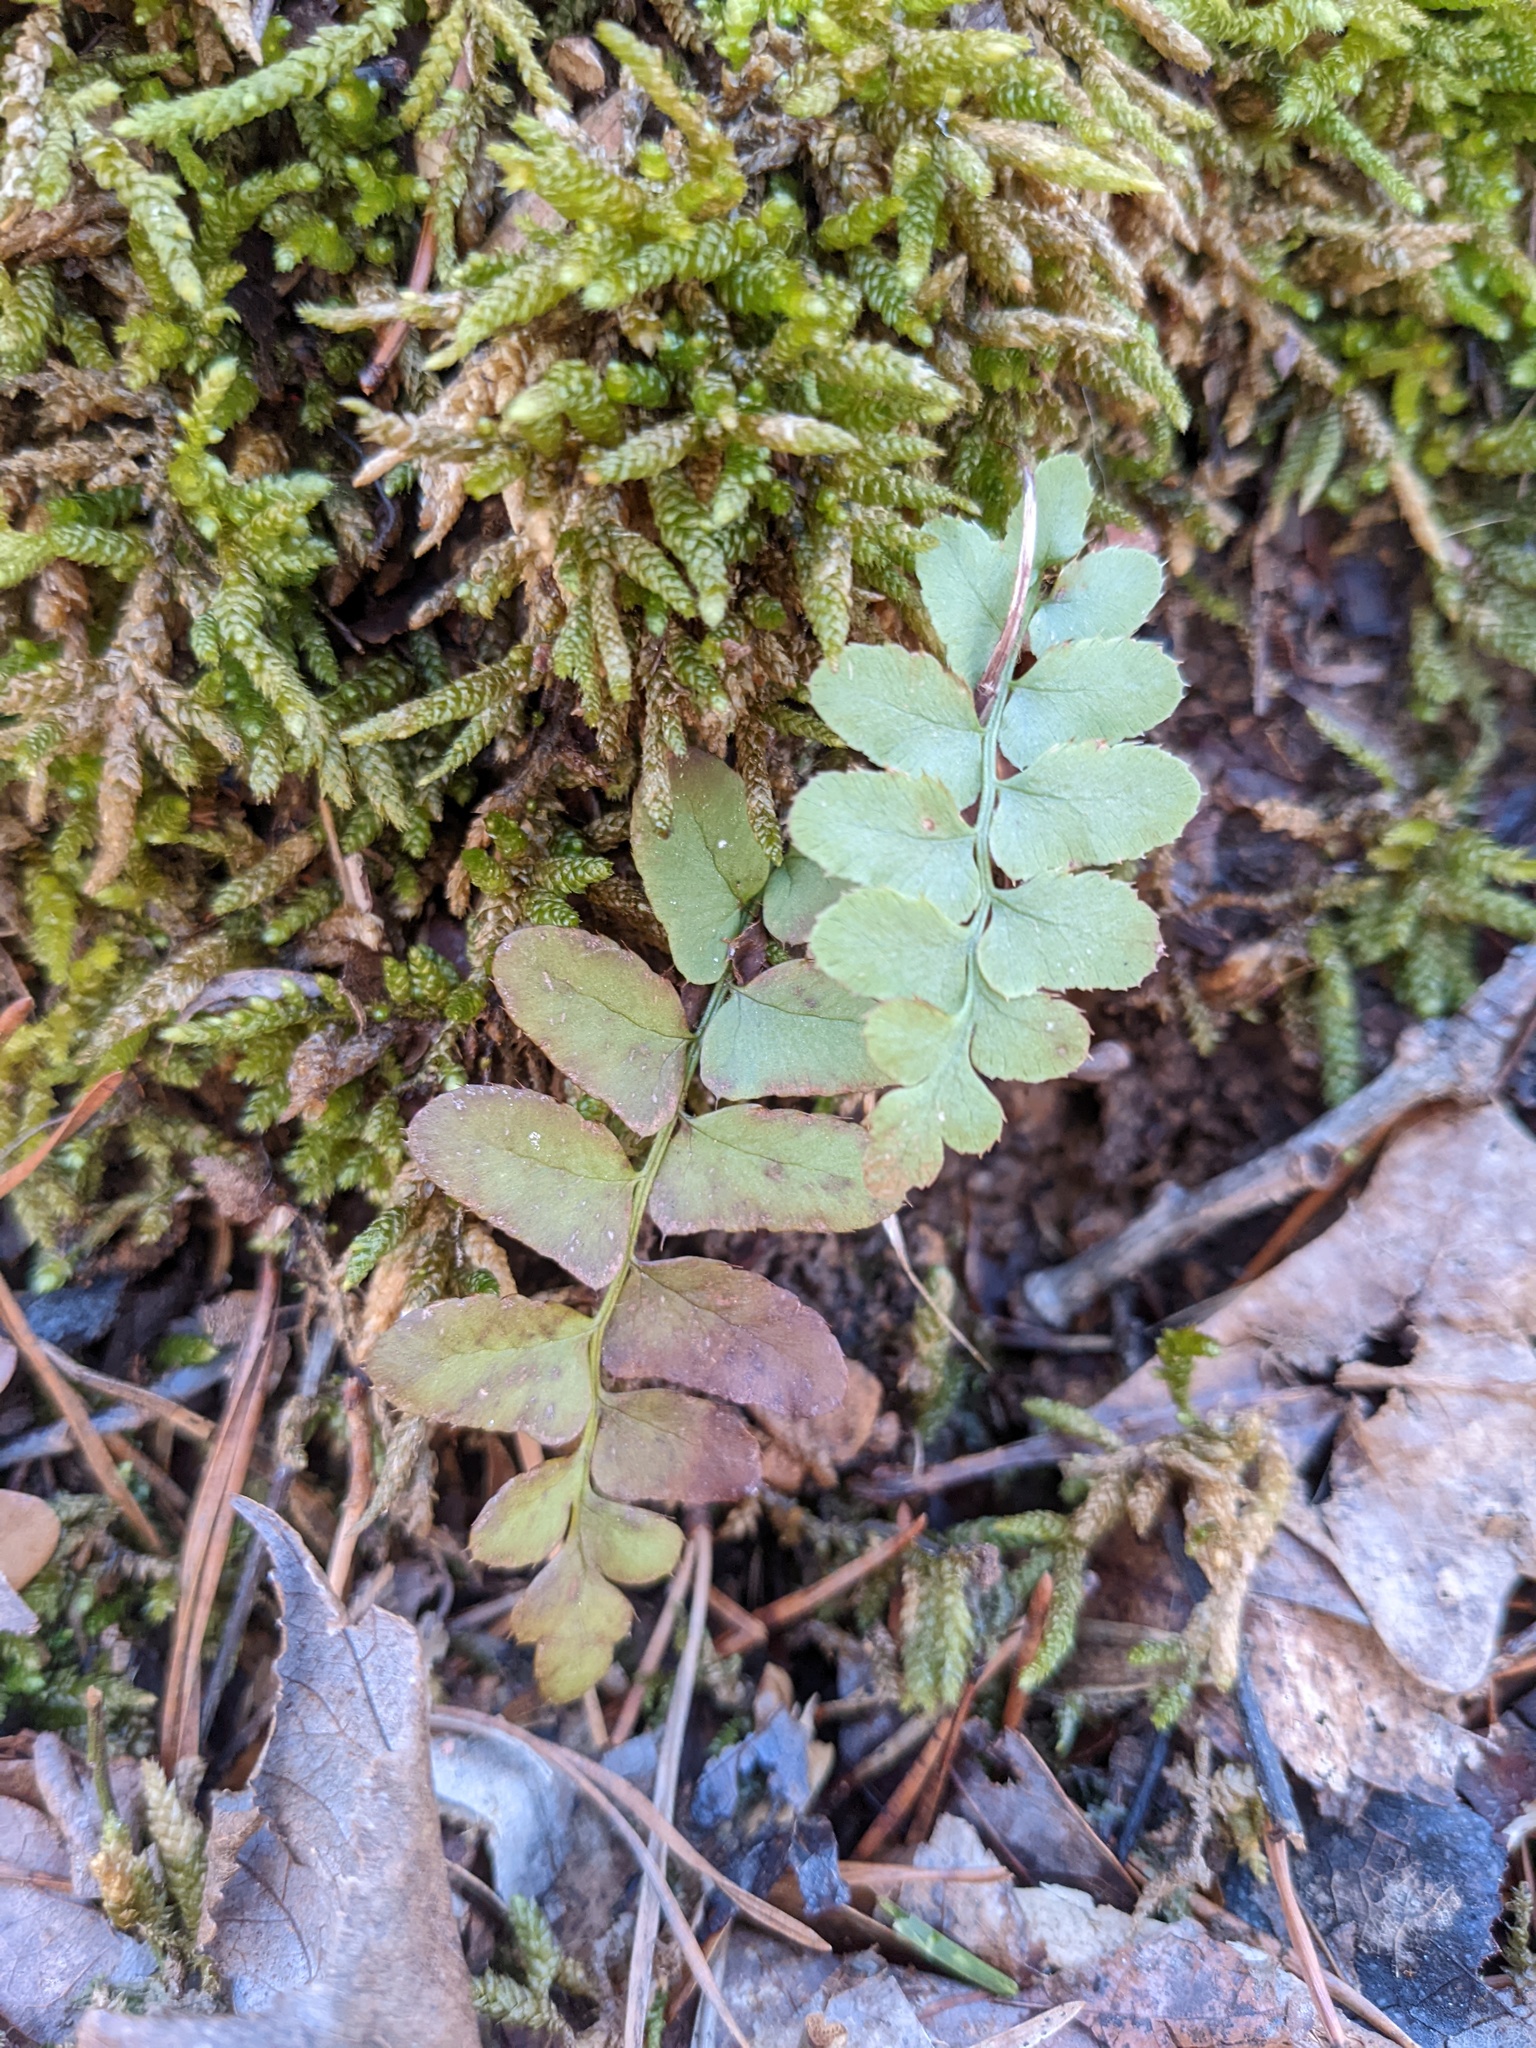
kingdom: Plantae
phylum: Tracheophyta
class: Polypodiopsida
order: Polypodiales
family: Dryopteridaceae
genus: Polystichum
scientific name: Polystichum acrostichoides
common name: Christmas fern
